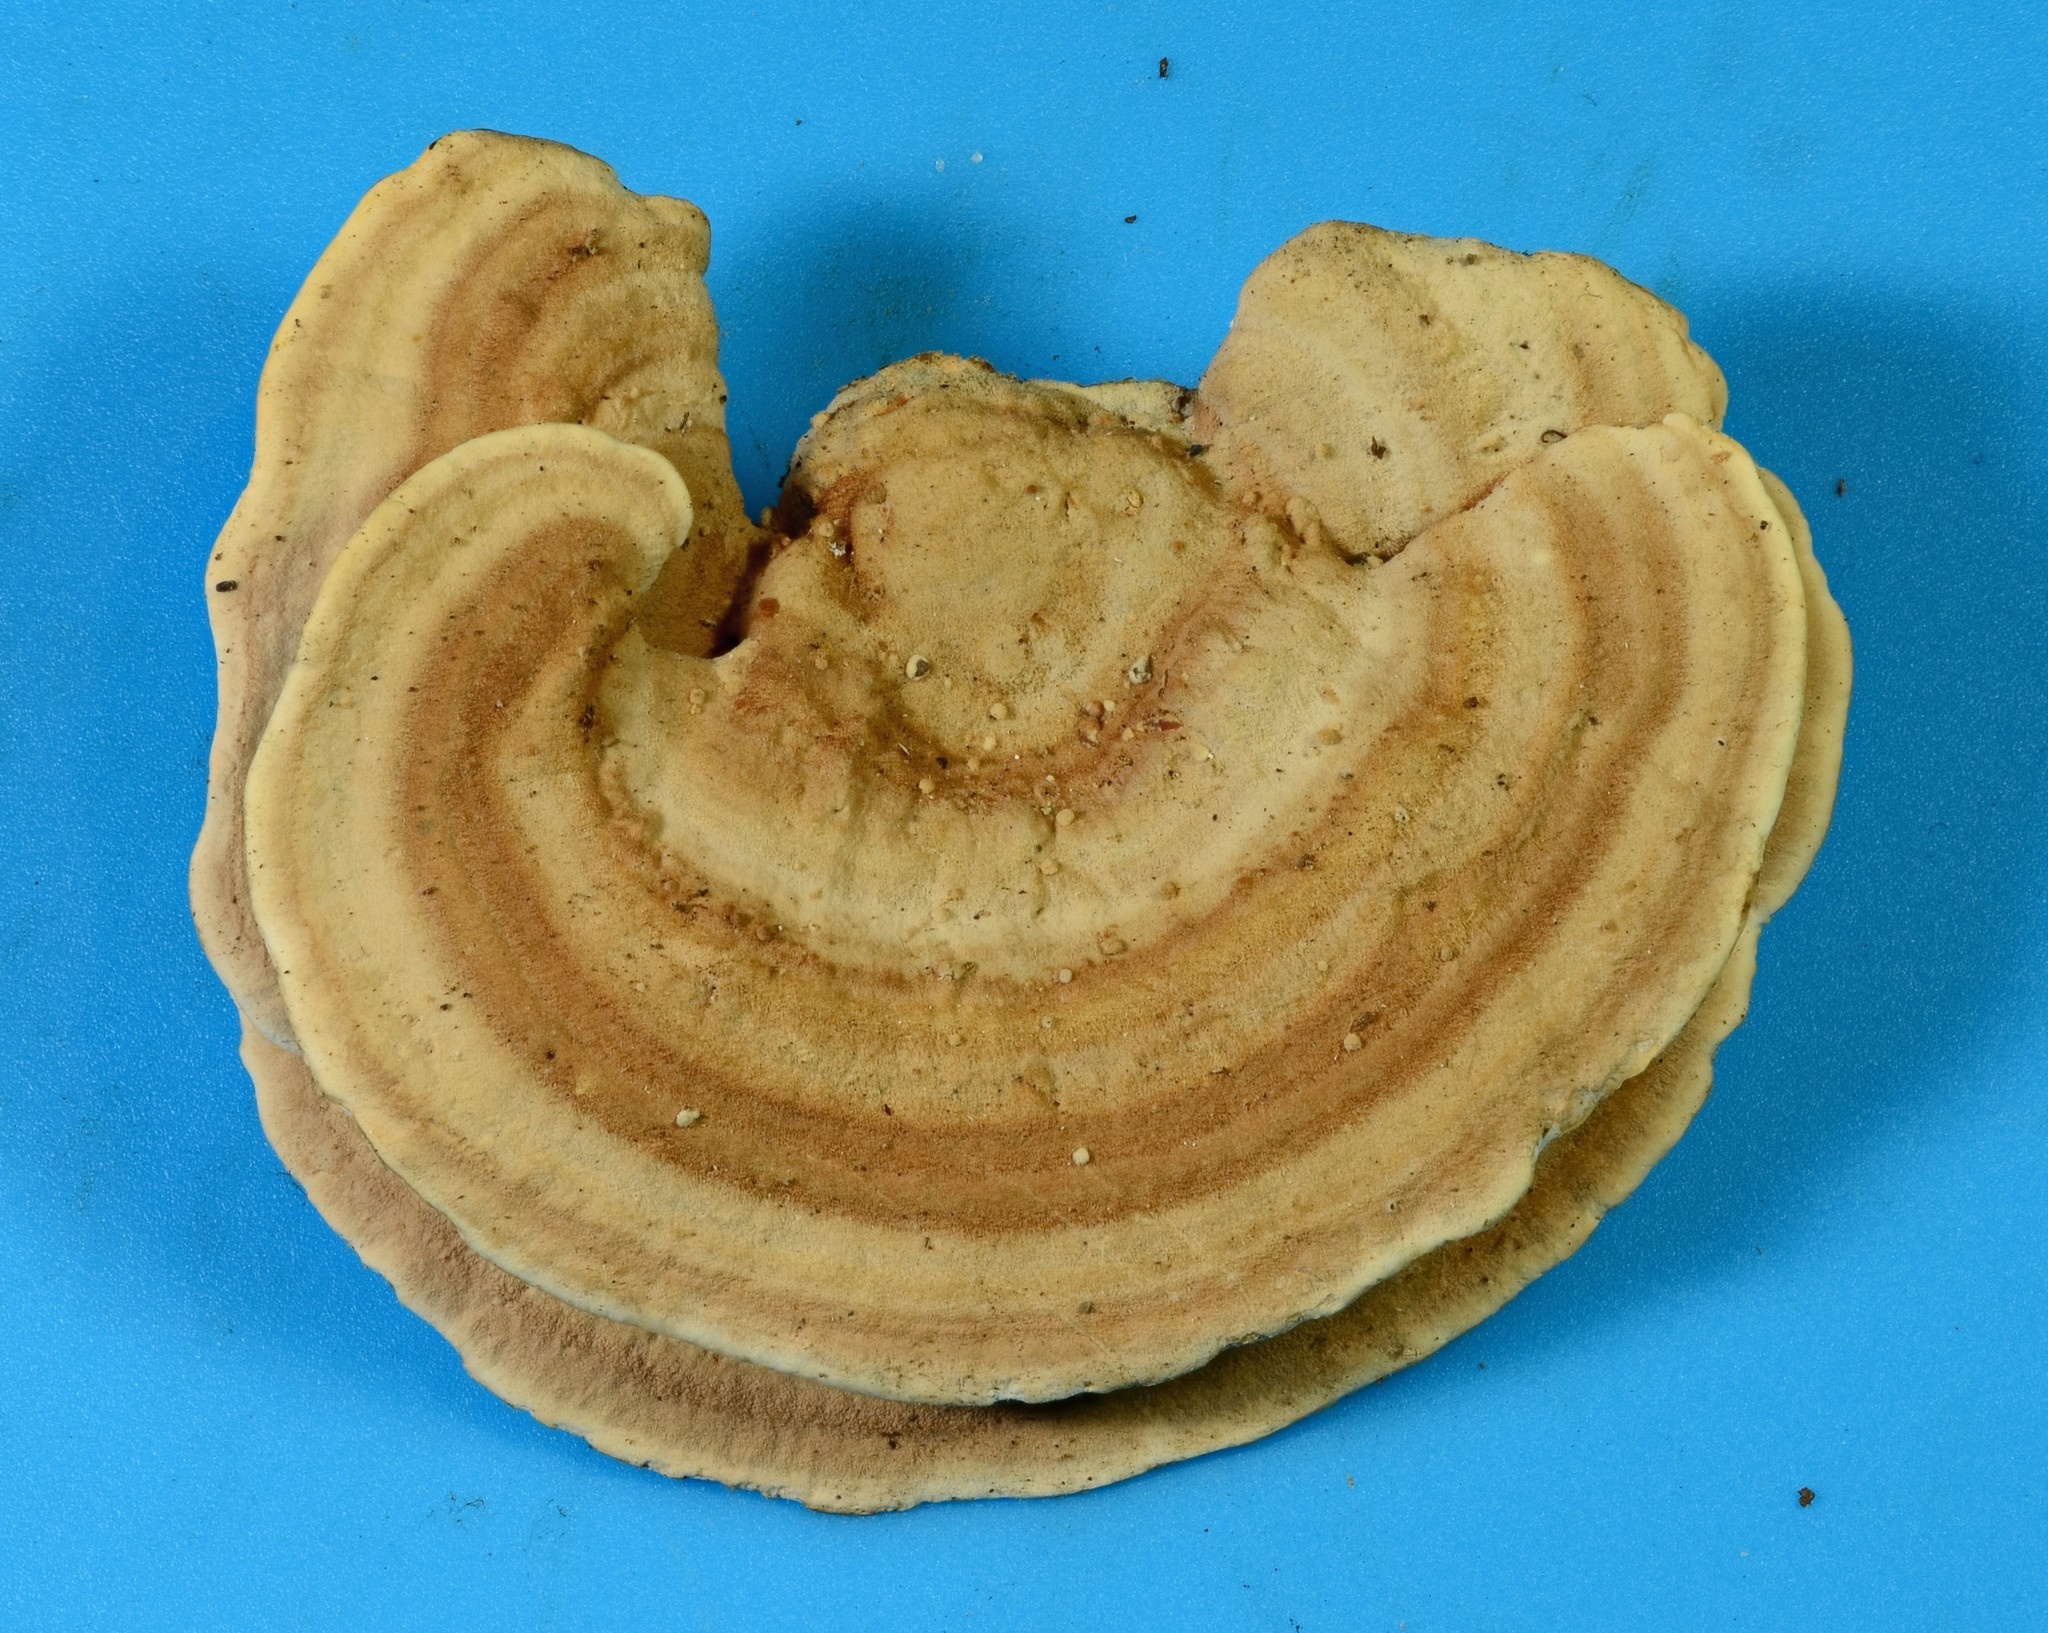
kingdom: Fungi
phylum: Basidiomycota
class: Agaricomycetes
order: Polyporales
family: Steccherinaceae
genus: Steccherinum
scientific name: Steccherinum rawakense
